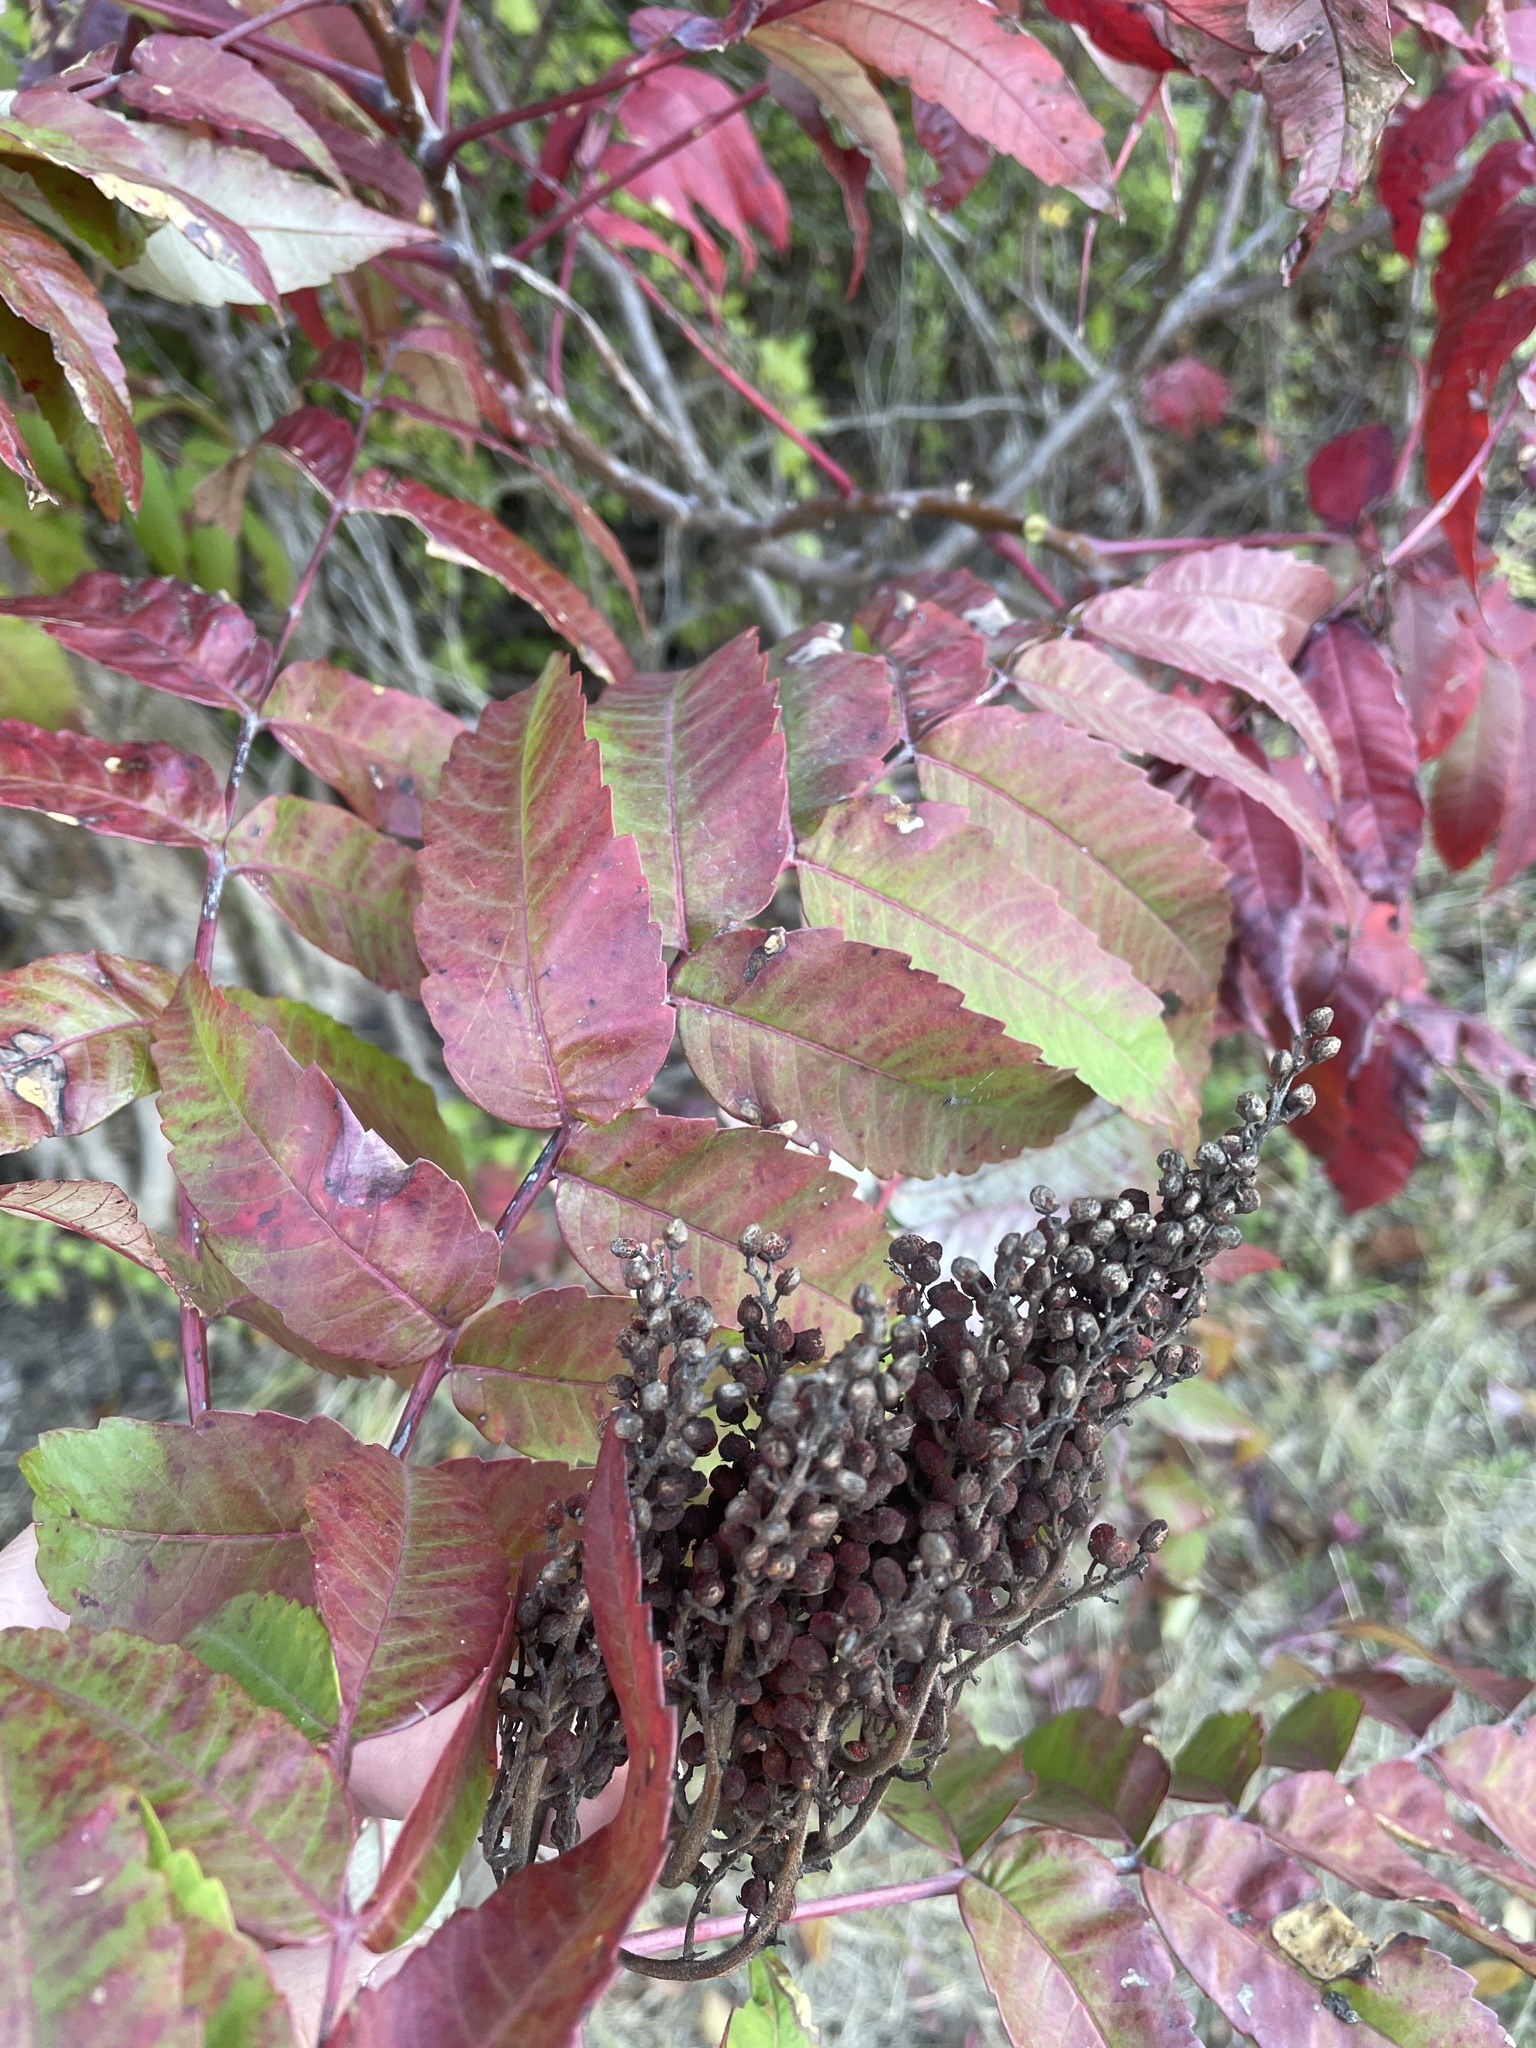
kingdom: Plantae
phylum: Tracheophyta
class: Magnoliopsida
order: Sapindales
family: Anacardiaceae
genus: Rhus
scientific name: Rhus glabra
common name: Scarlet sumac
